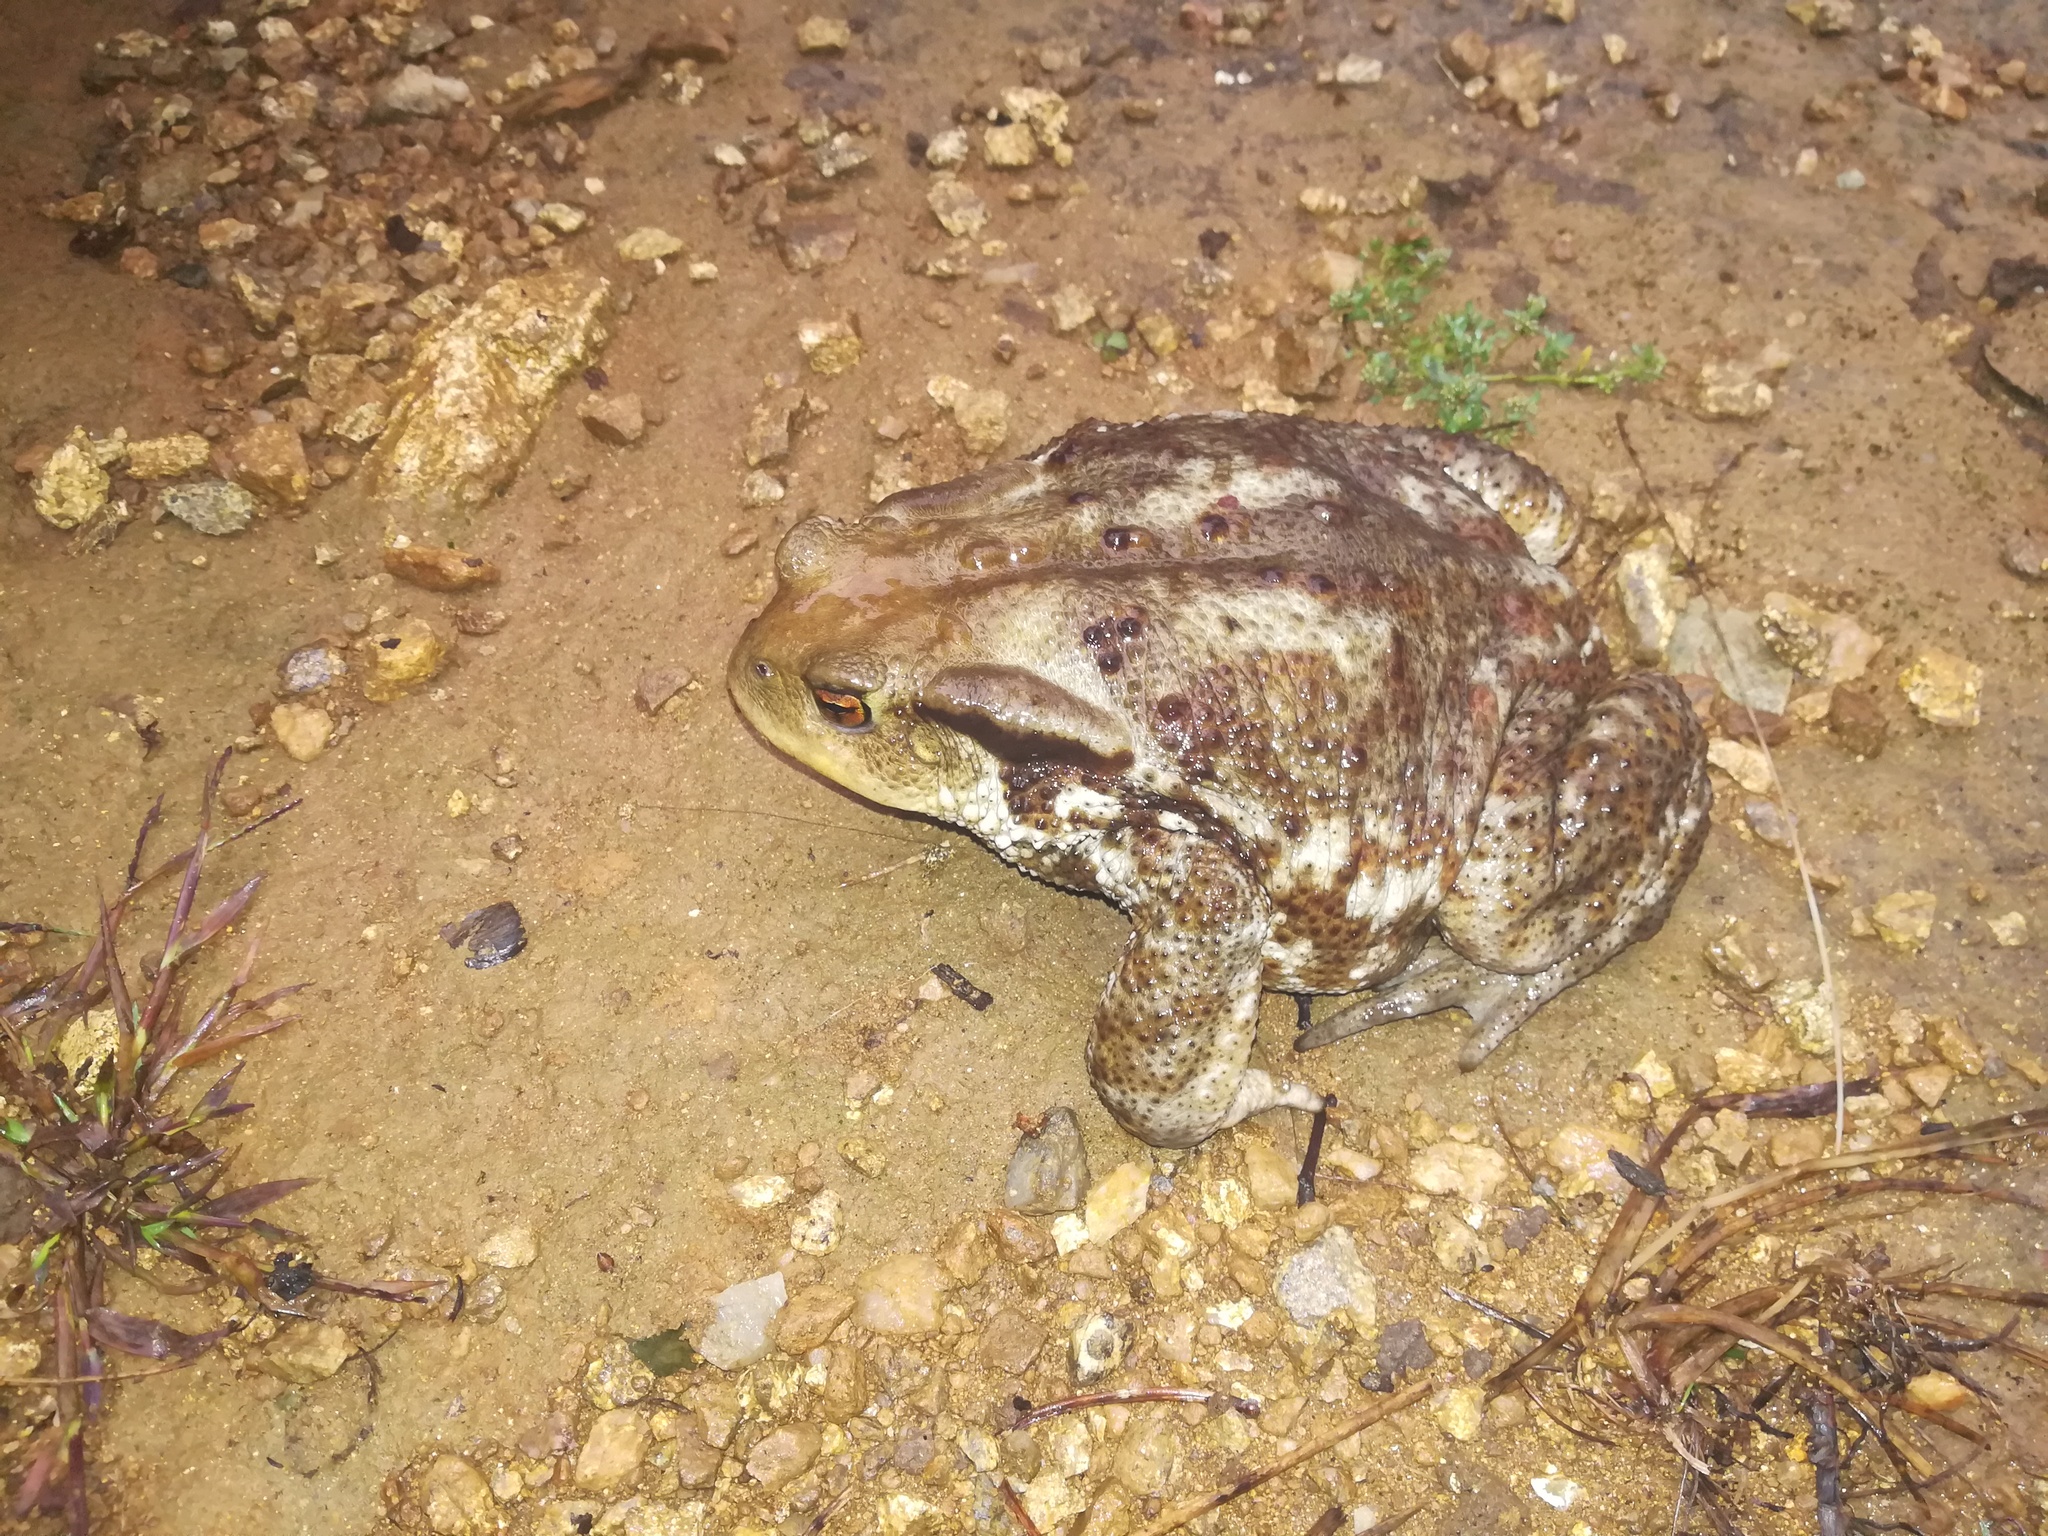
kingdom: Animalia
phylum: Chordata
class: Amphibia
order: Anura
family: Bufonidae
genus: Bufo
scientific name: Bufo bufo
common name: Common toad
